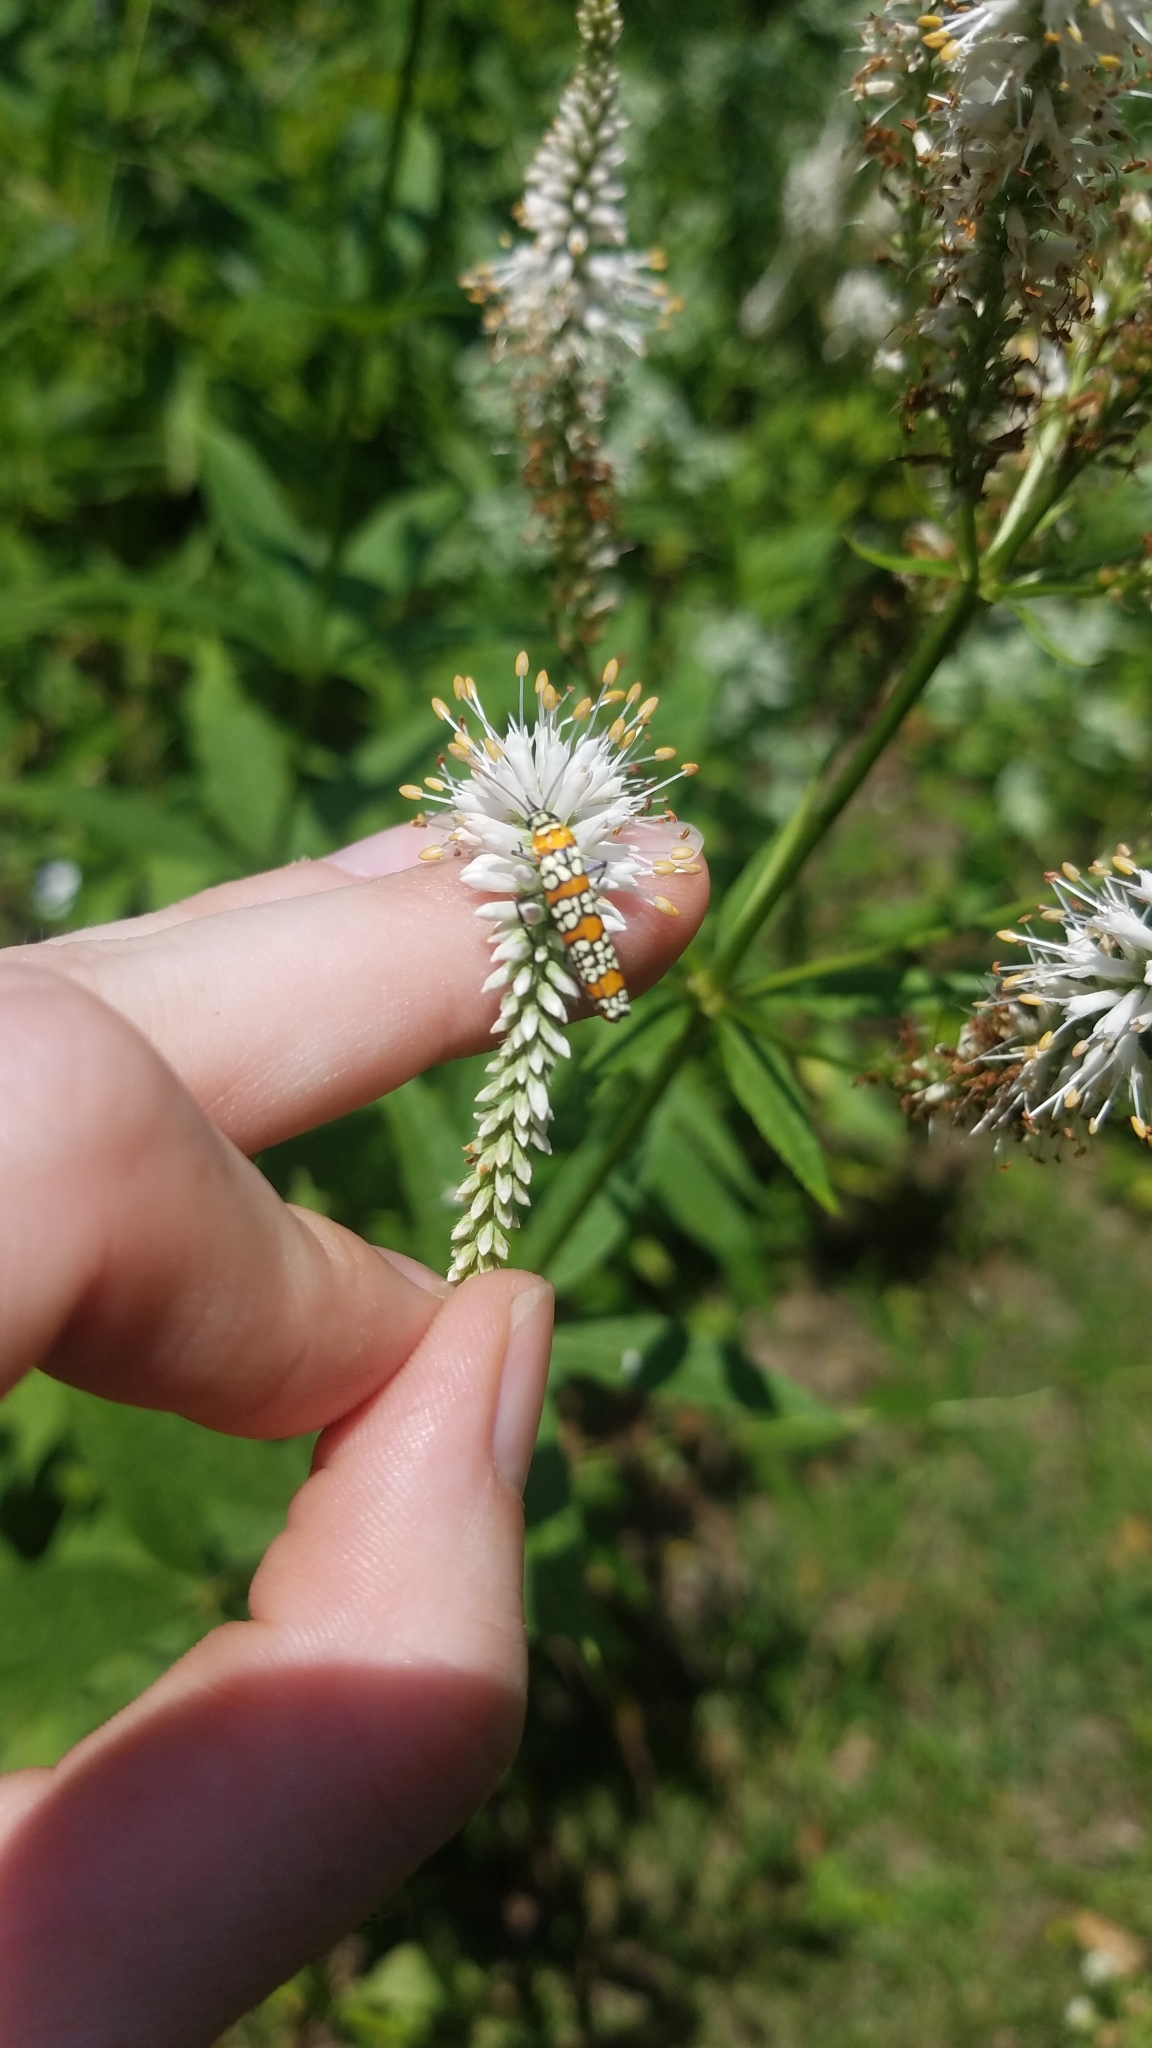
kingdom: Animalia
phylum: Arthropoda
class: Insecta
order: Lepidoptera
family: Attevidae
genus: Atteva
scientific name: Atteva punctella
